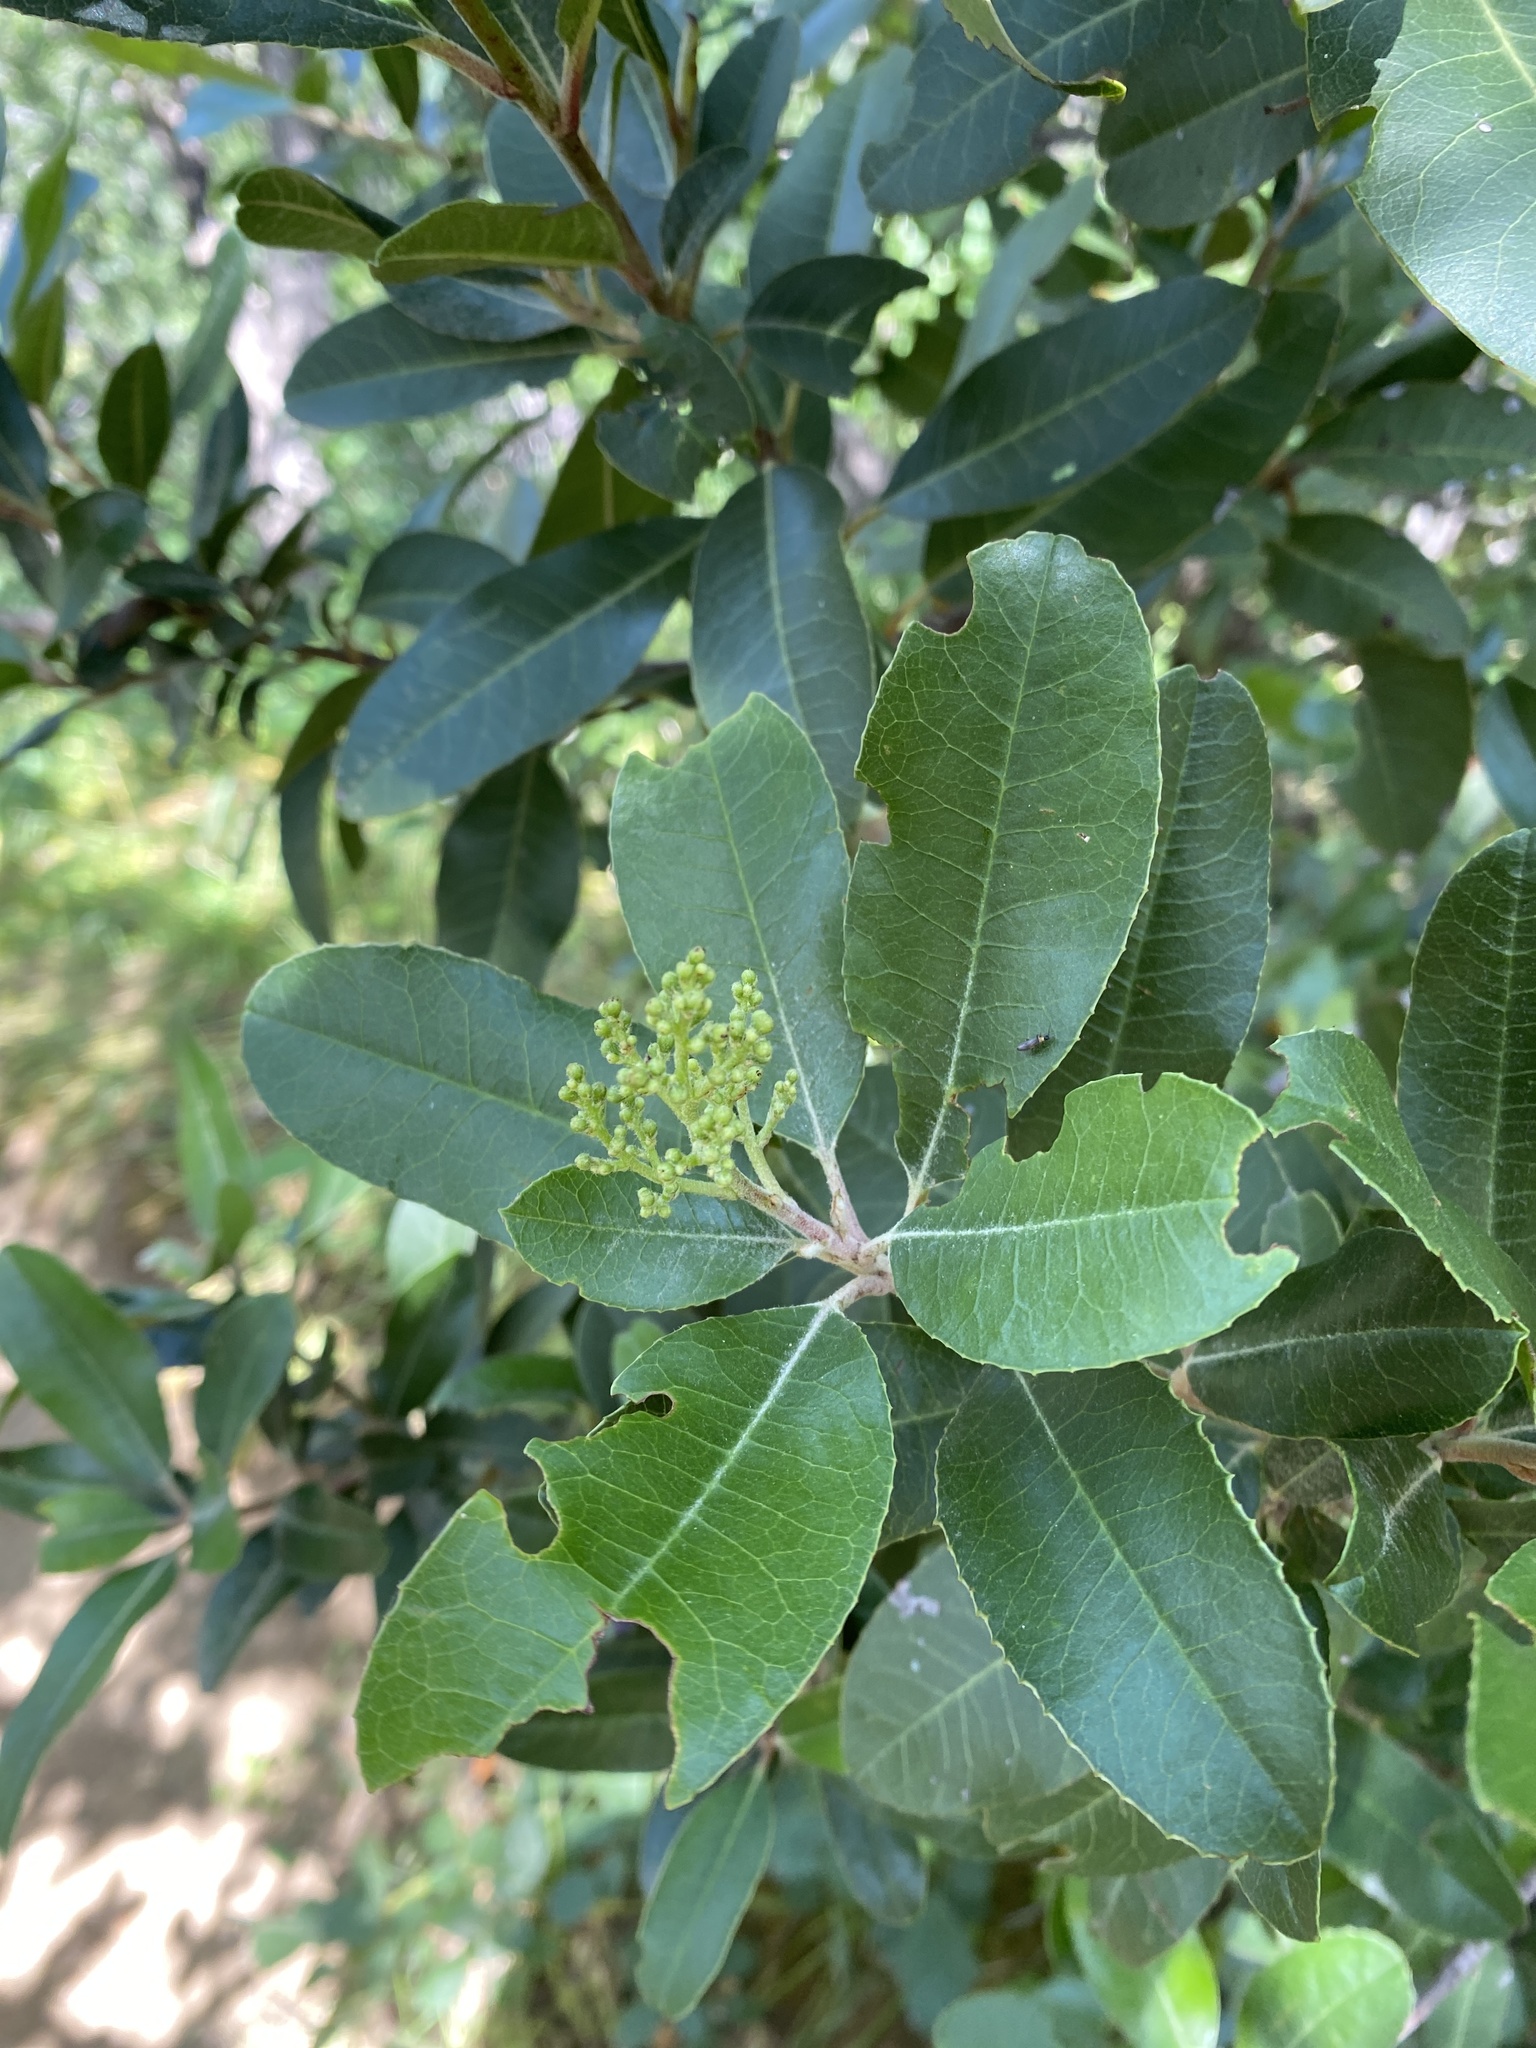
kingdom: Plantae
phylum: Tracheophyta
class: Magnoliopsida
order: Rosales
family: Rosaceae
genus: Heteromeles
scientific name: Heteromeles arbutifolia
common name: California-holly
